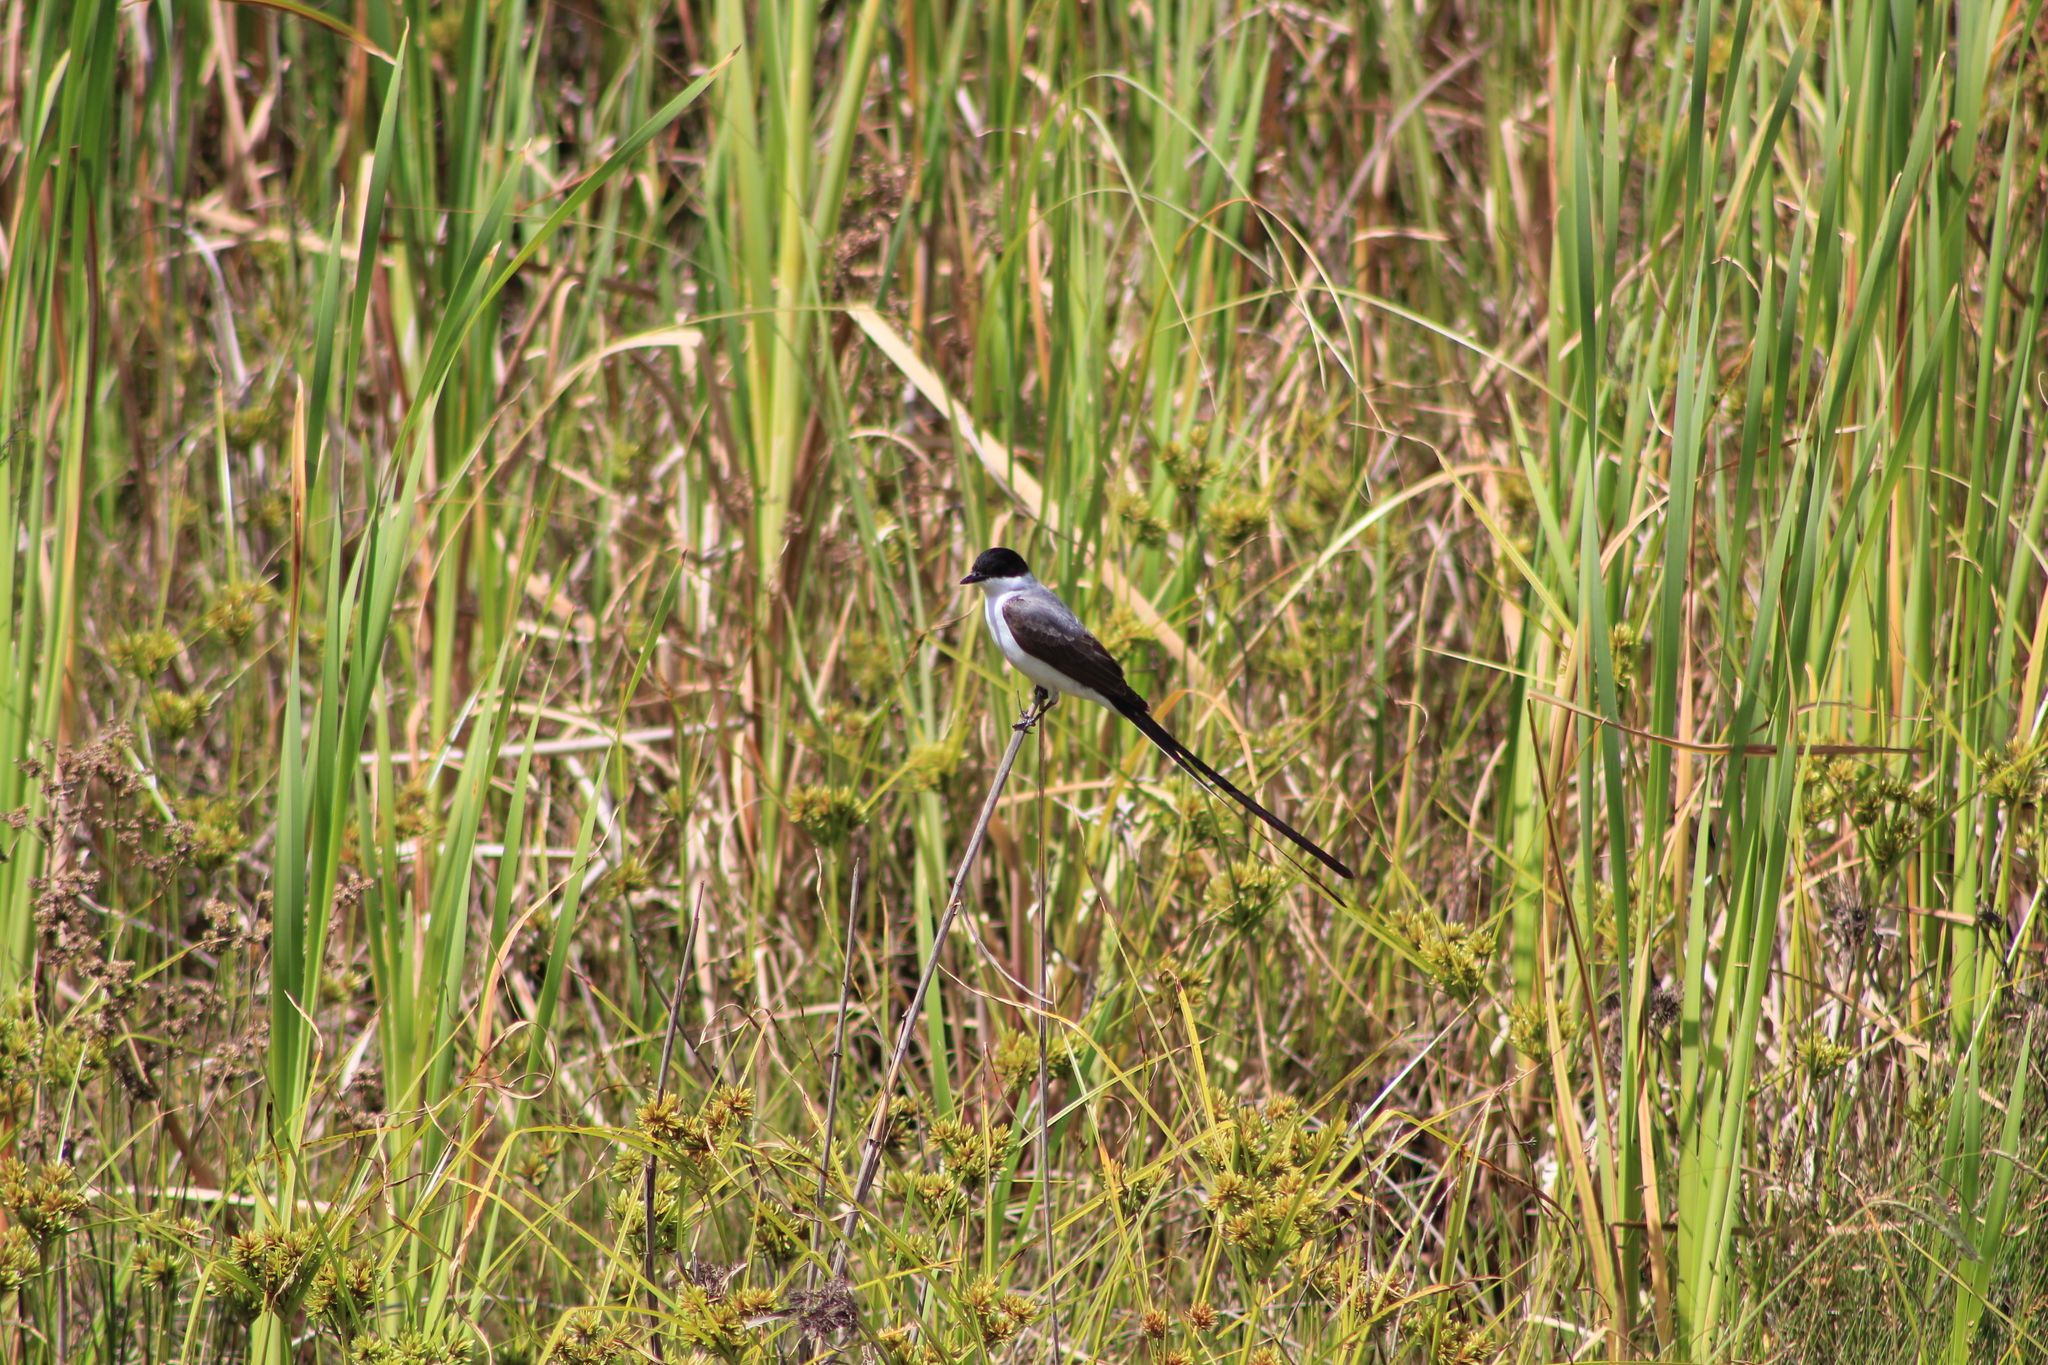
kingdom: Animalia
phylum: Chordata
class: Aves
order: Passeriformes
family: Tyrannidae
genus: Tyrannus
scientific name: Tyrannus savana
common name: Fork-tailed flycatcher
